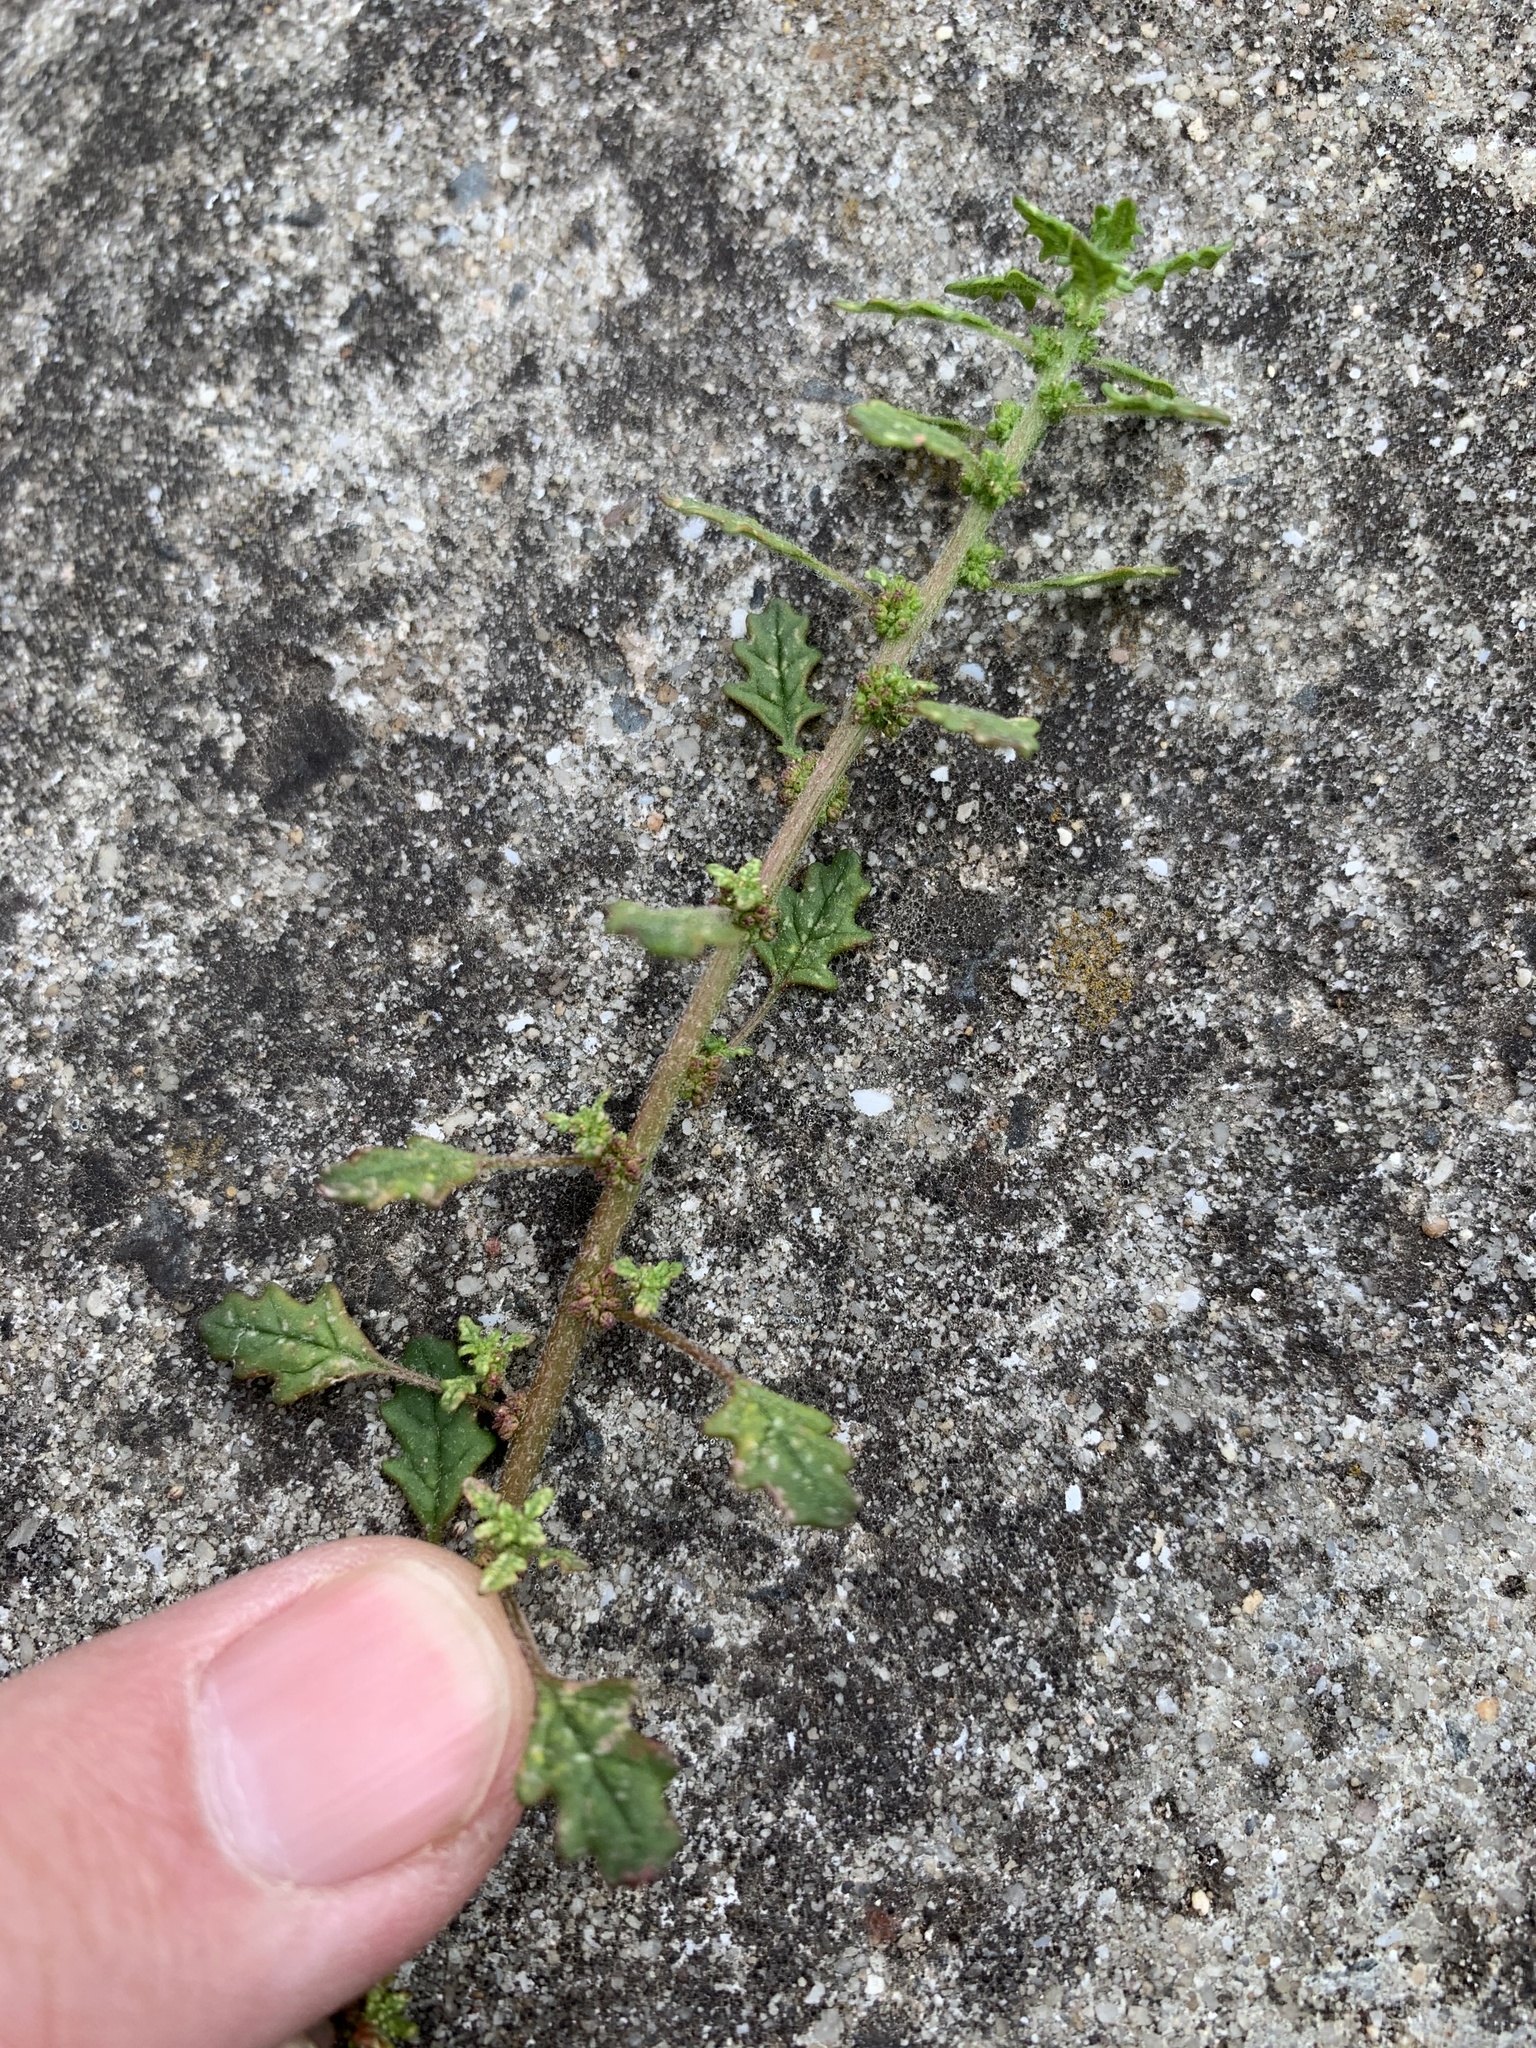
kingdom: Plantae
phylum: Tracheophyta
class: Magnoliopsida
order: Caryophyllales
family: Amaranthaceae
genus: Dysphania
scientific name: Dysphania pumilio
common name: Clammy goosefoot
